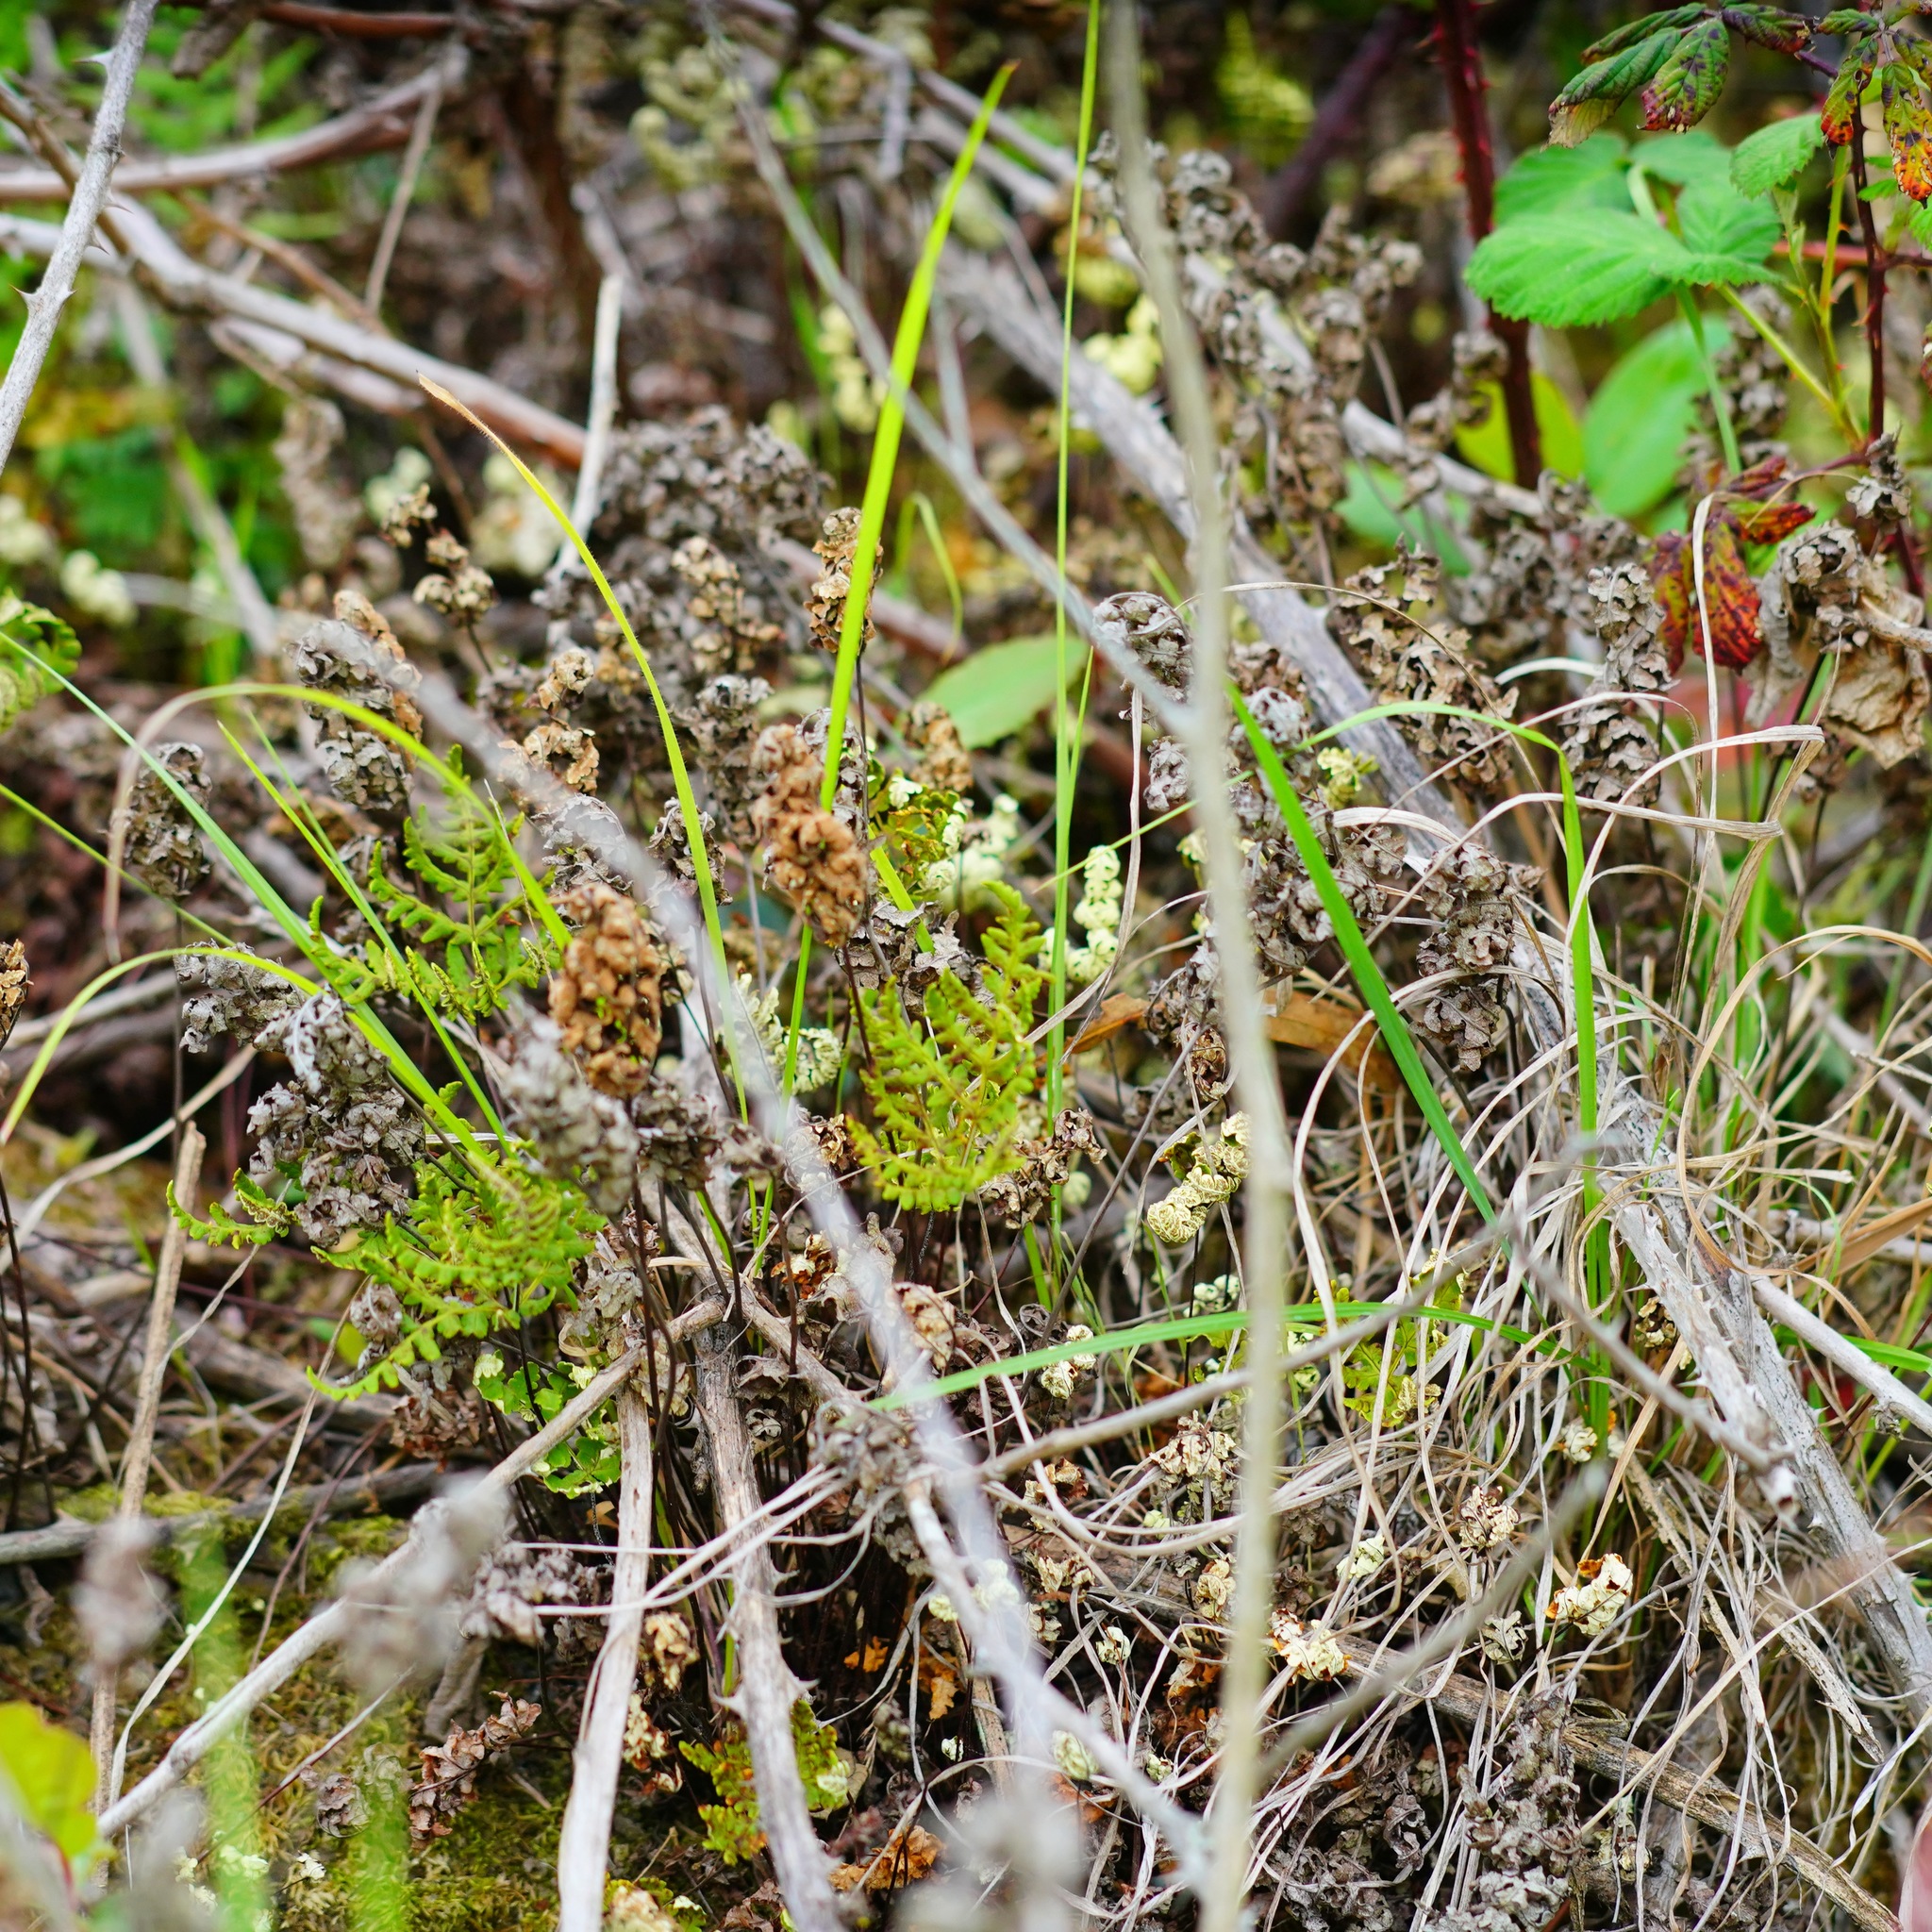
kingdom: Plantae
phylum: Tracheophyta
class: Polypodiopsida
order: Polypodiales
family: Pteridaceae
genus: Pentagramma
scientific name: Pentagramma triangularis
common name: Gold fern
